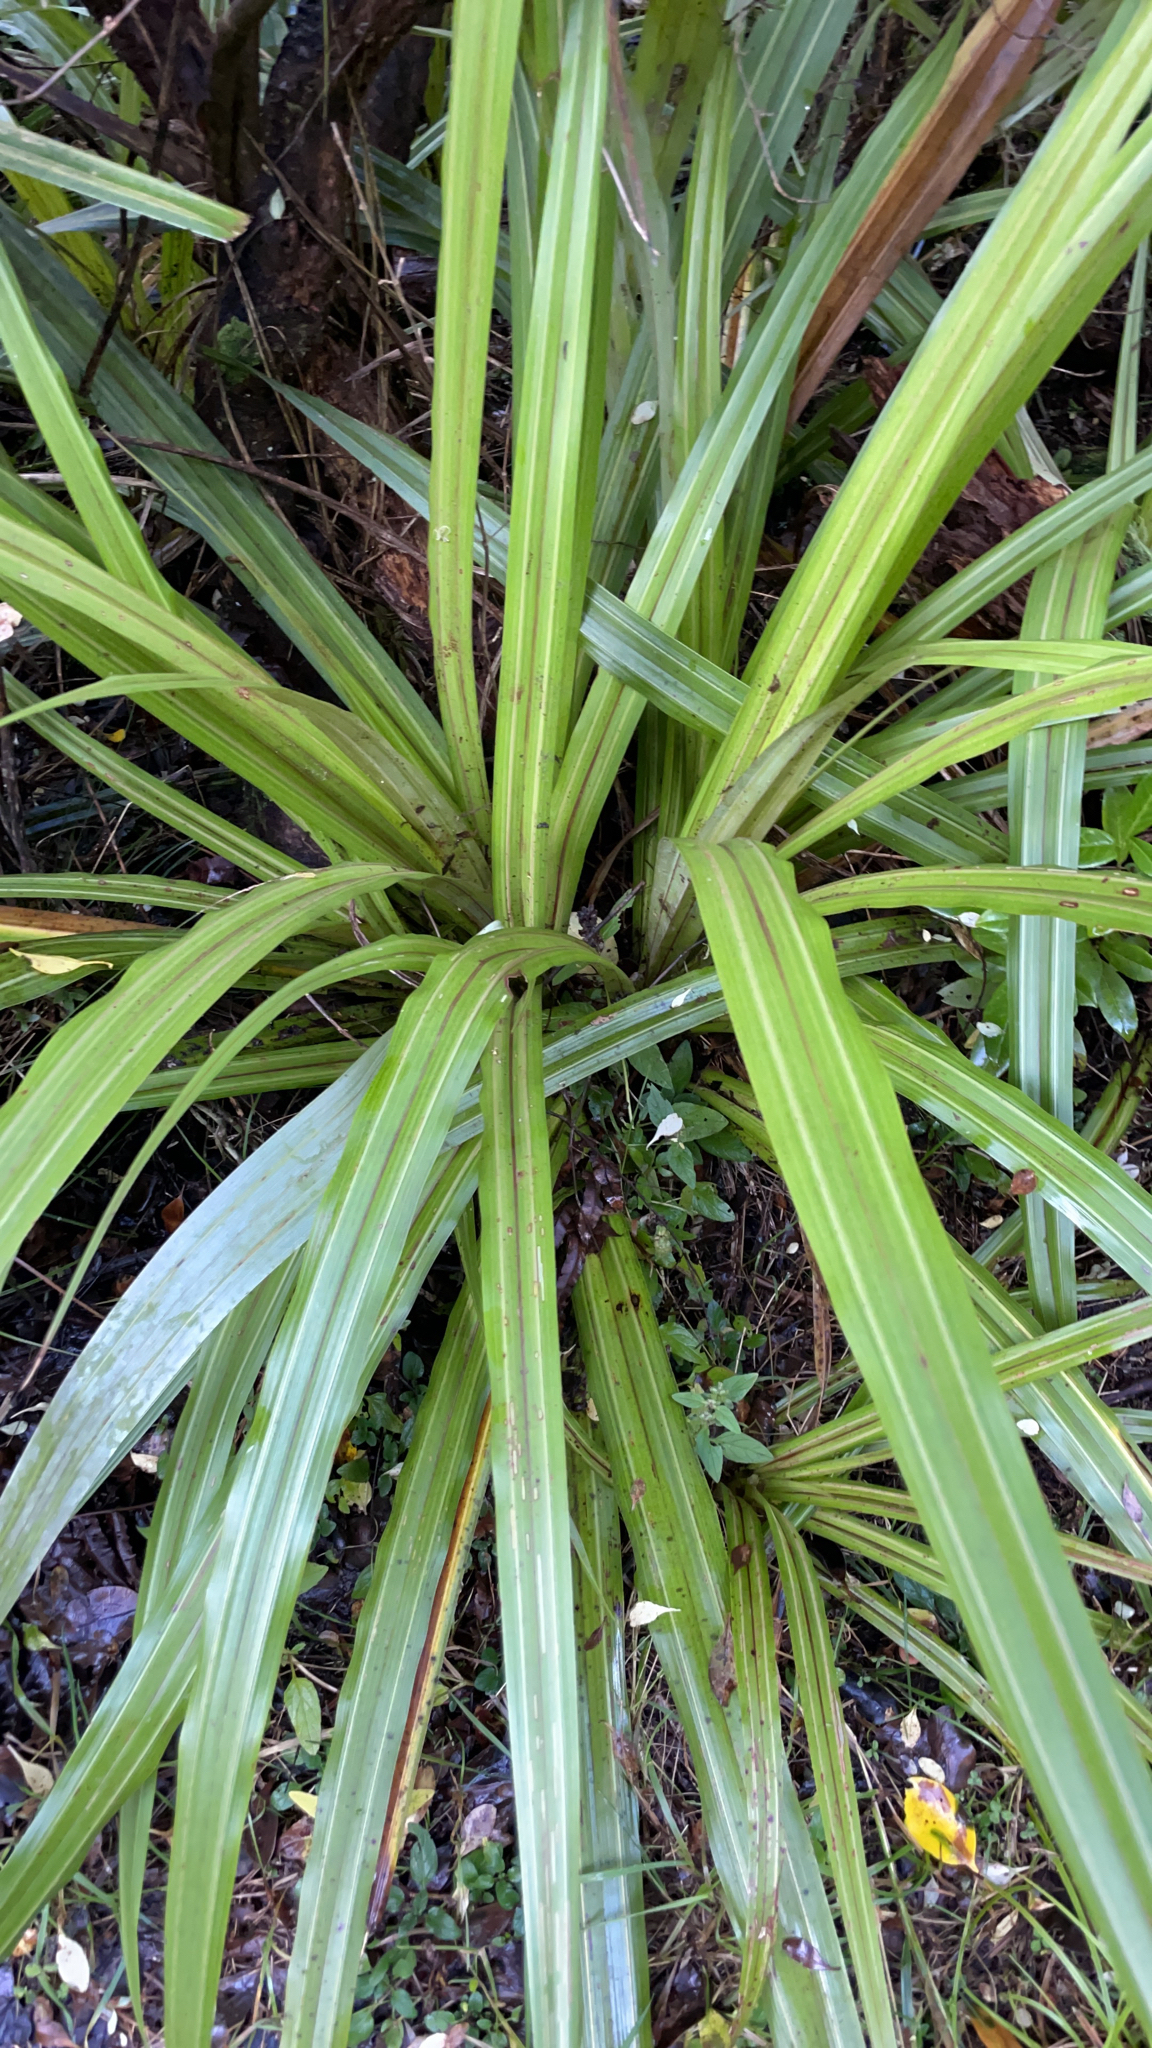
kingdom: Plantae
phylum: Tracheophyta
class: Liliopsida
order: Asparagales
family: Asteliaceae
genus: Astelia
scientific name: Astelia fragrans
